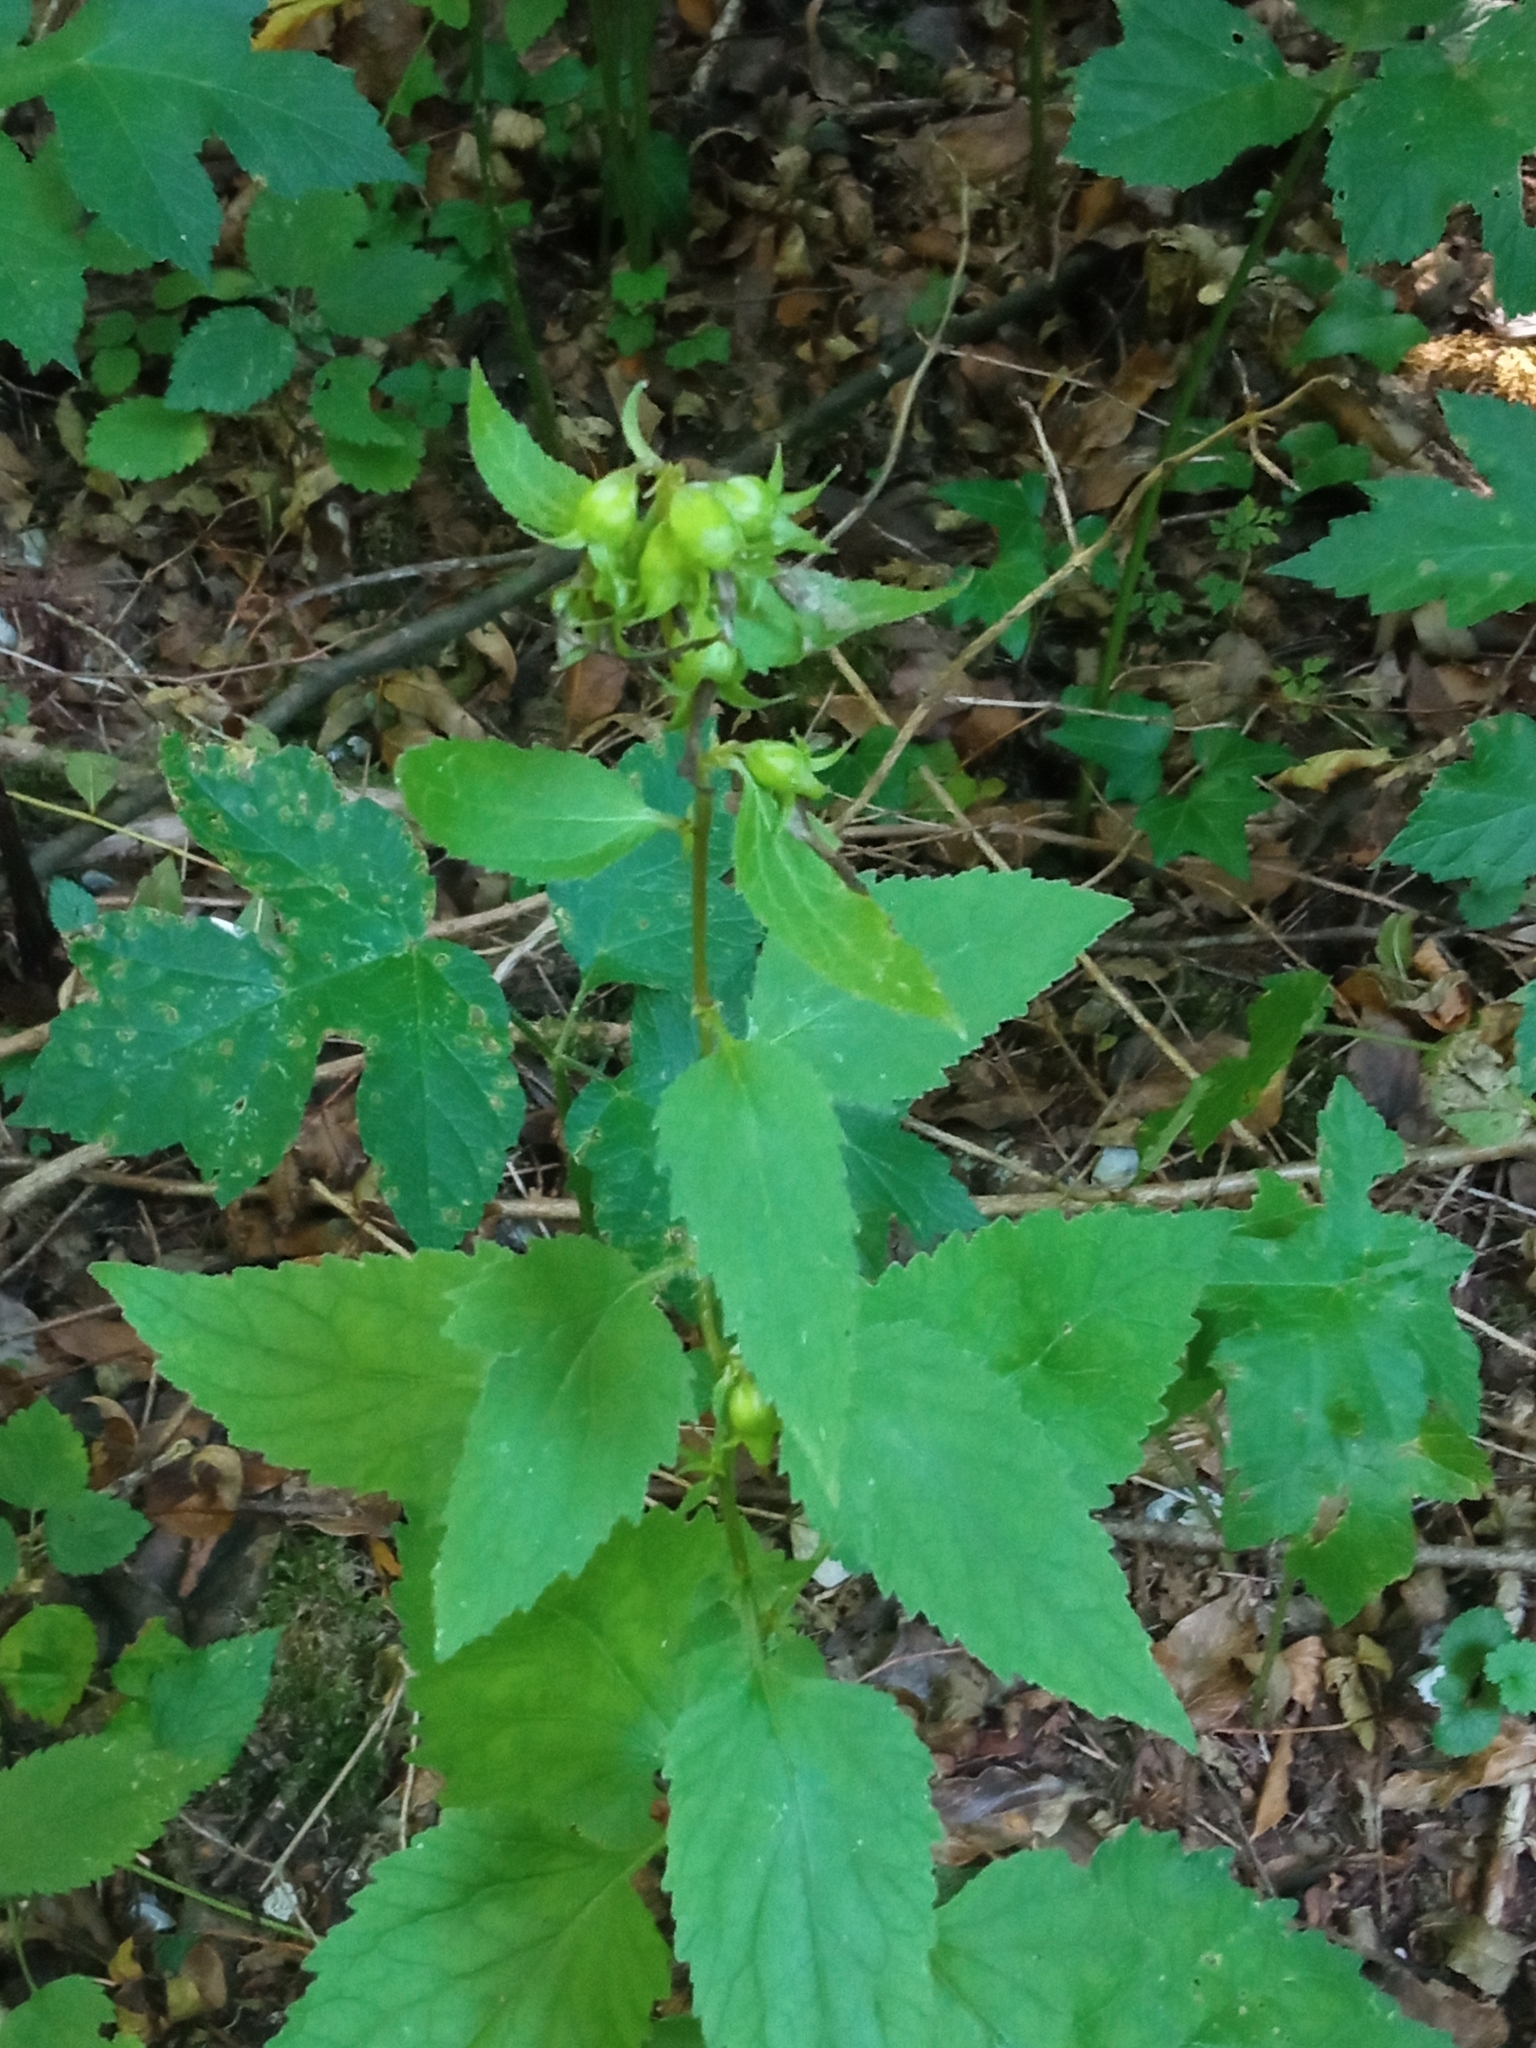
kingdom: Plantae
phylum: Tracheophyta
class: Magnoliopsida
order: Asterales
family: Campanulaceae
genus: Campanula
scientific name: Campanula trachelium
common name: Nettle-leaved bellflower
